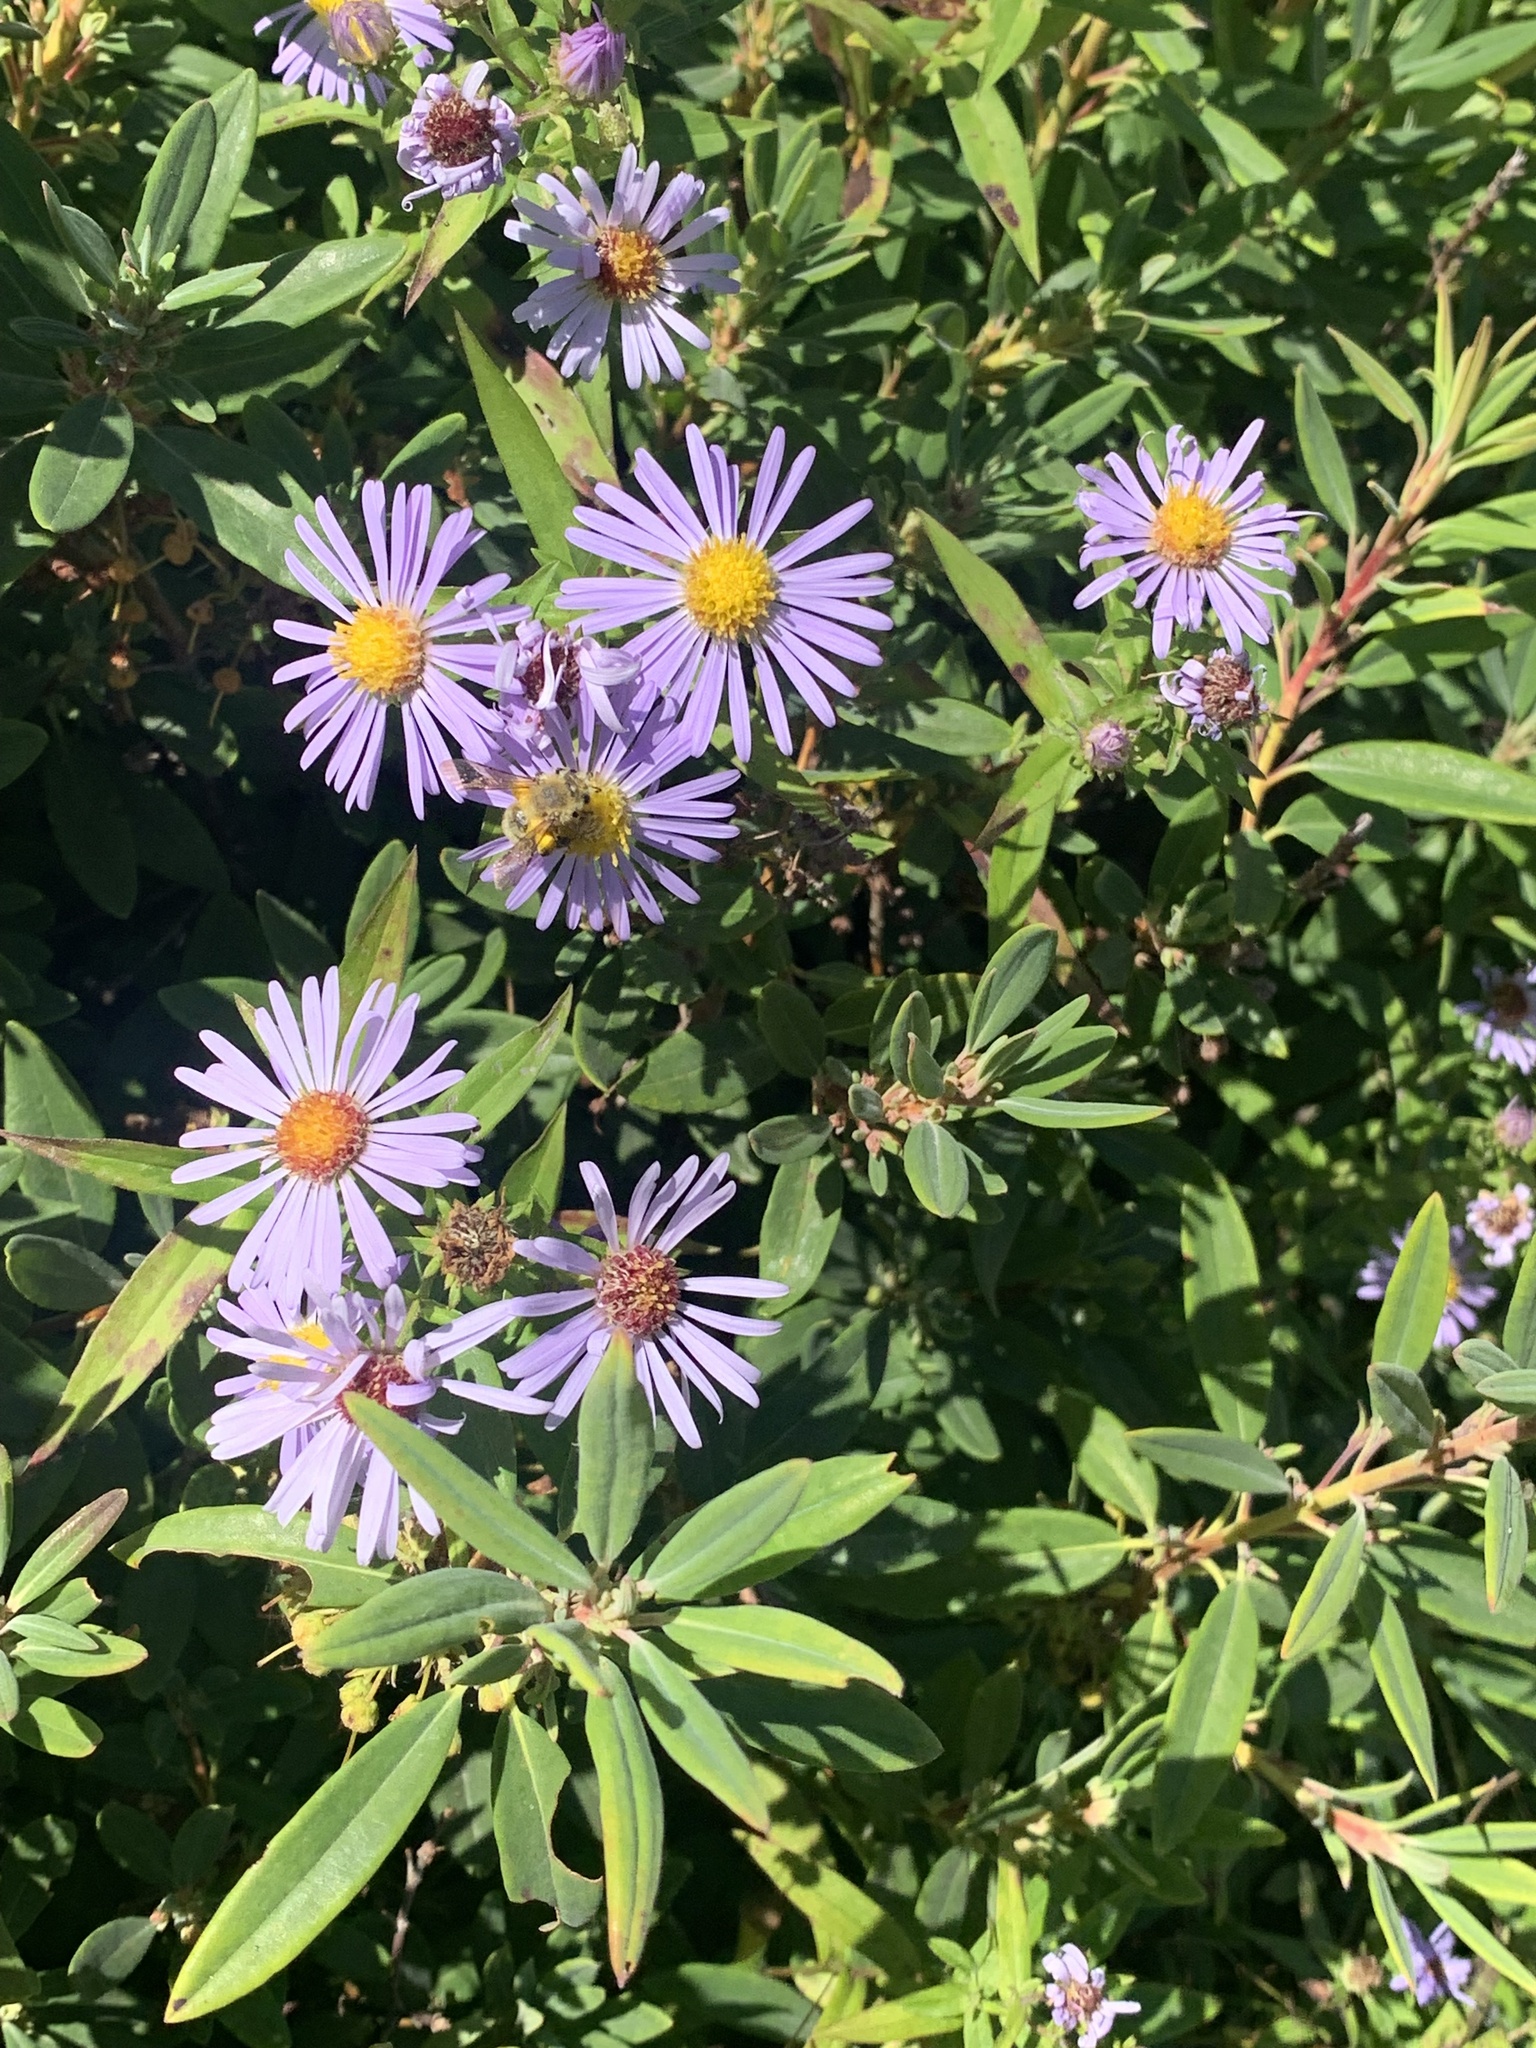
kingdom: Plantae
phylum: Tracheophyta
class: Magnoliopsida
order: Asterales
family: Asteraceae
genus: Symphyotrichum
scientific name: Symphyotrichum novi-belgii
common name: Michaelmas daisy
